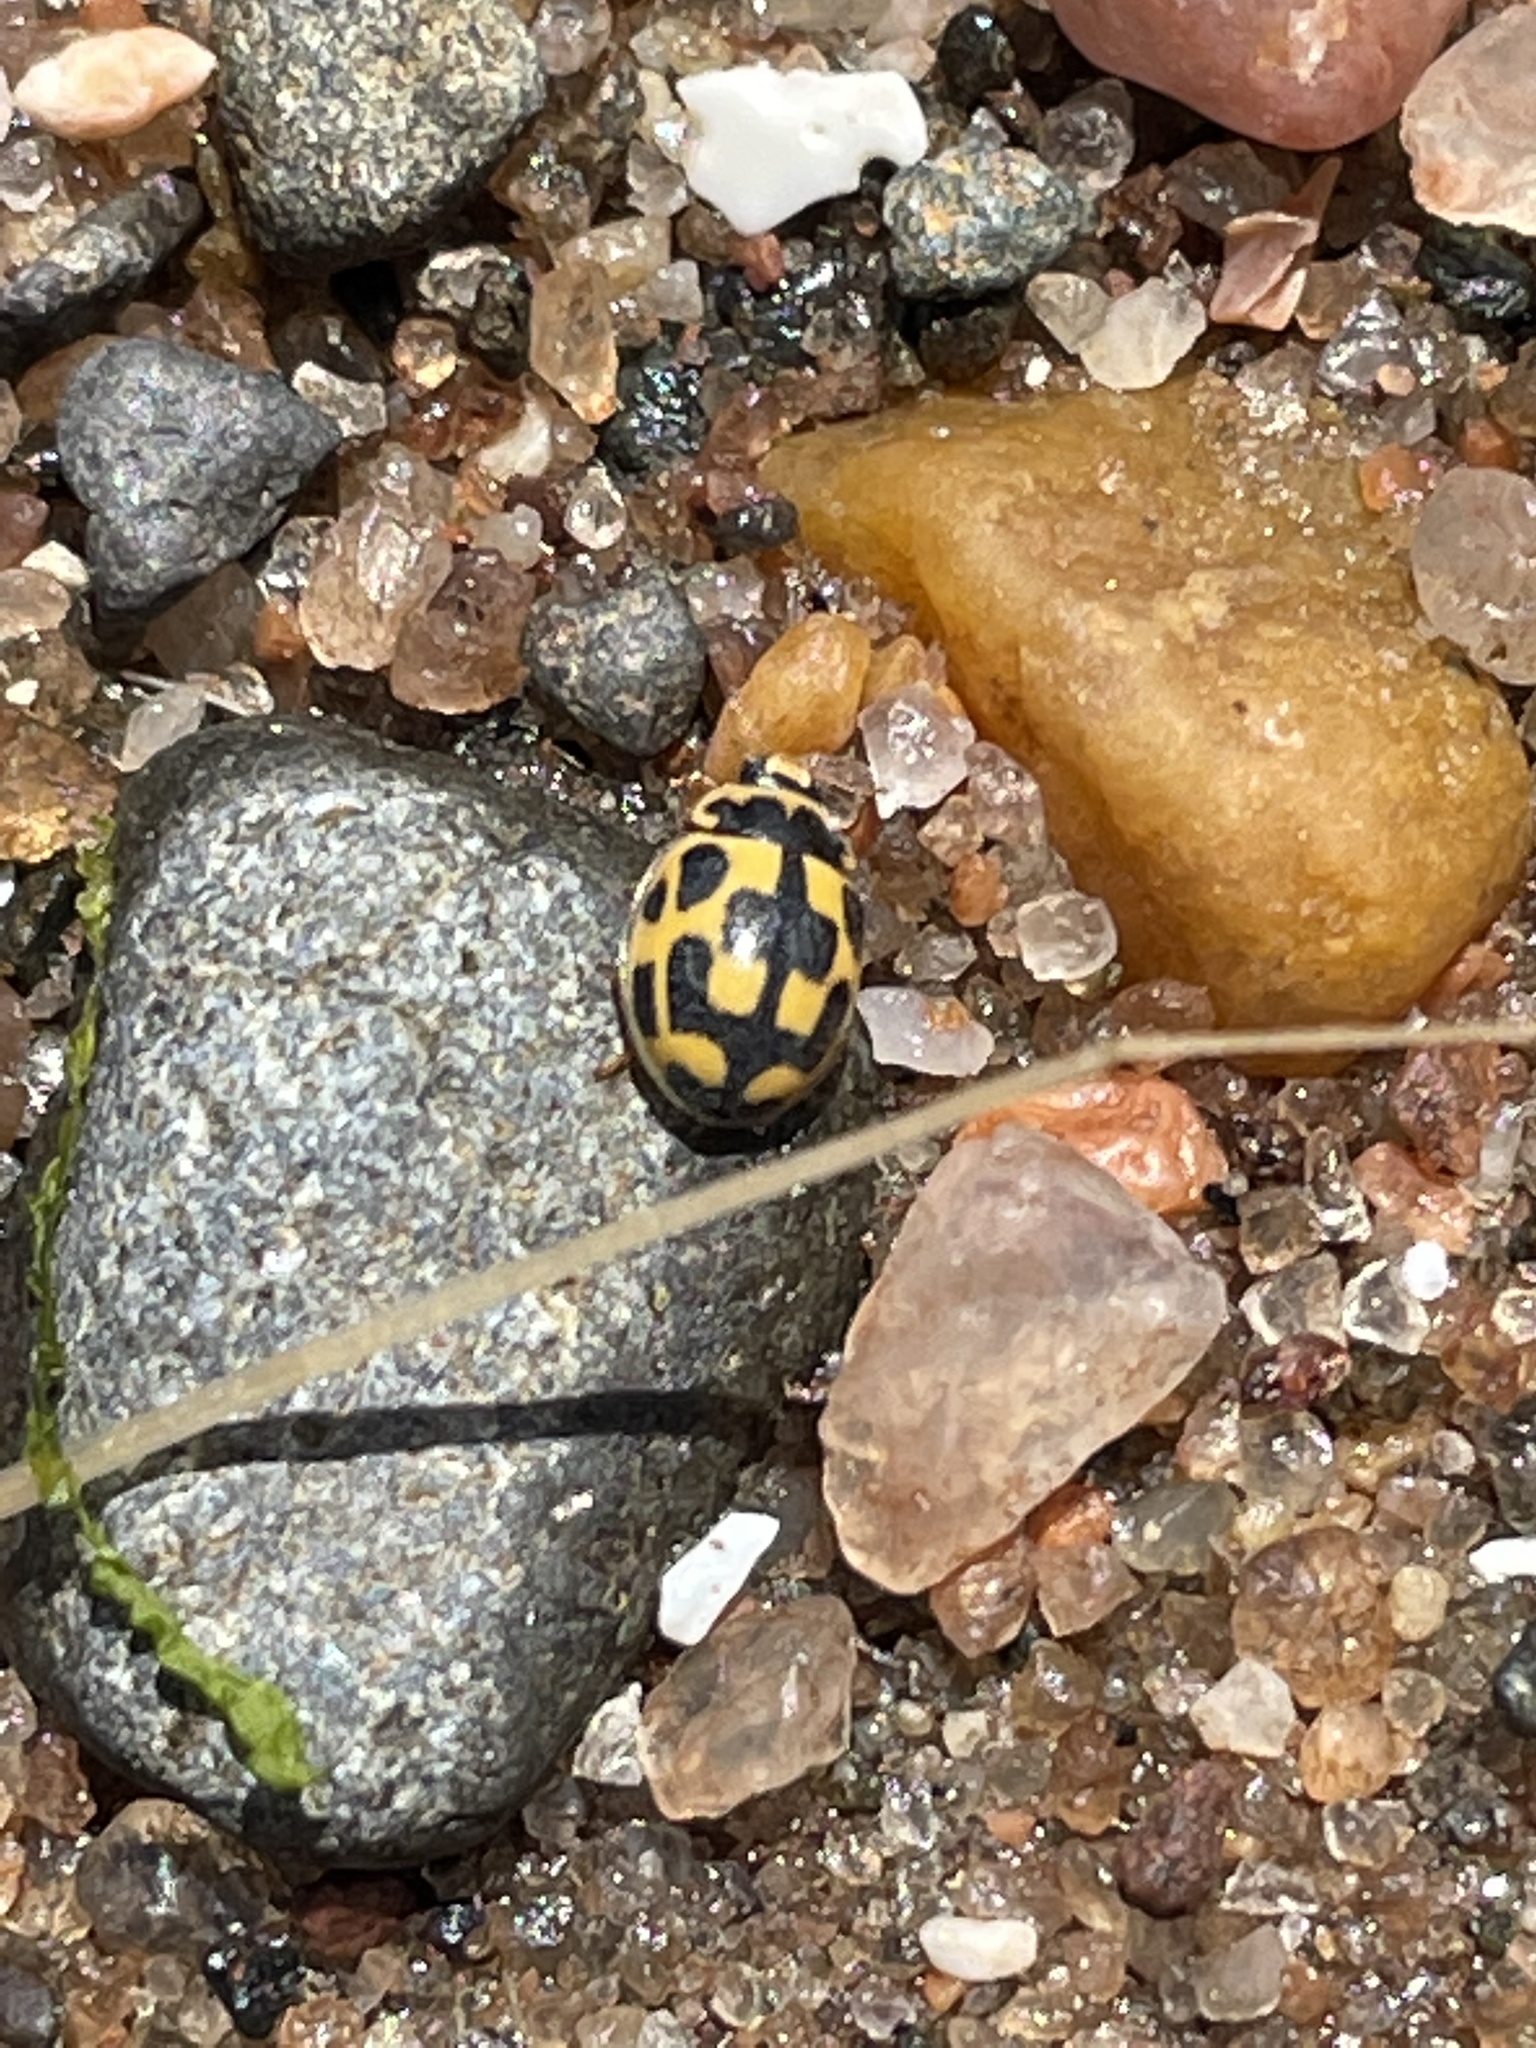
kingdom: Animalia
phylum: Arthropoda
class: Insecta
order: Coleoptera
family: Coccinellidae
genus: Propylaea
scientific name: Propylaea quatuordecimpunctata
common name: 14-spotted ladybird beetle
